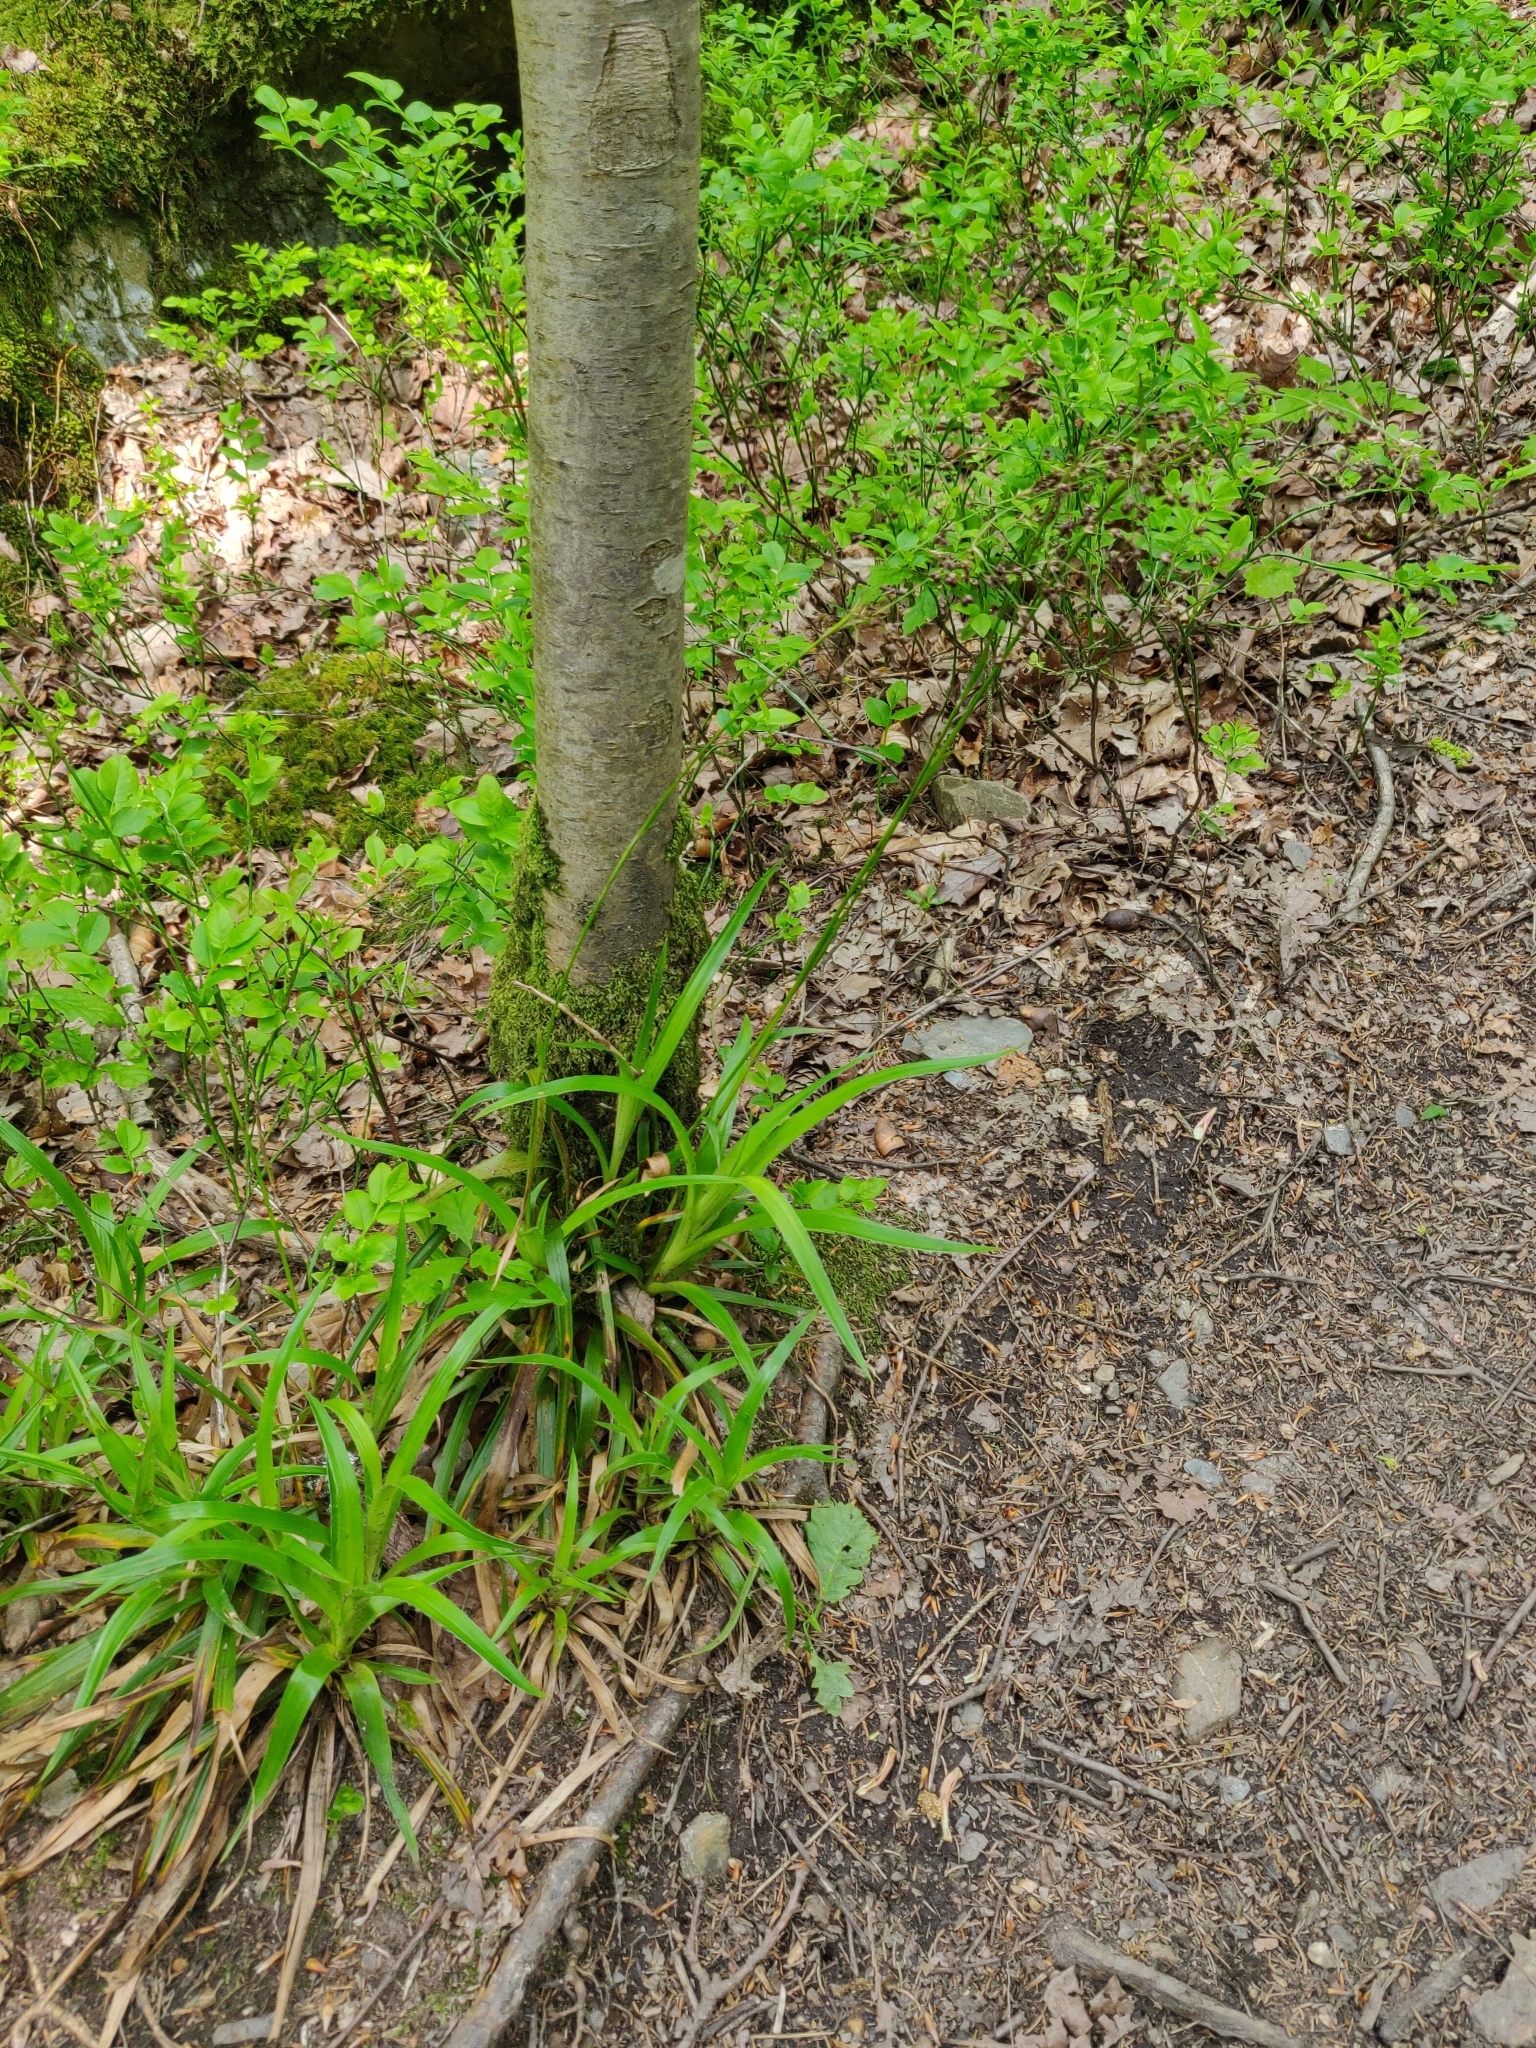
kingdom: Plantae
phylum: Tracheophyta
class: Liliopsida
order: Poales
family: Juncaceae
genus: Luzula
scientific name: Luzula sylvatica
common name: Great wood-rush
